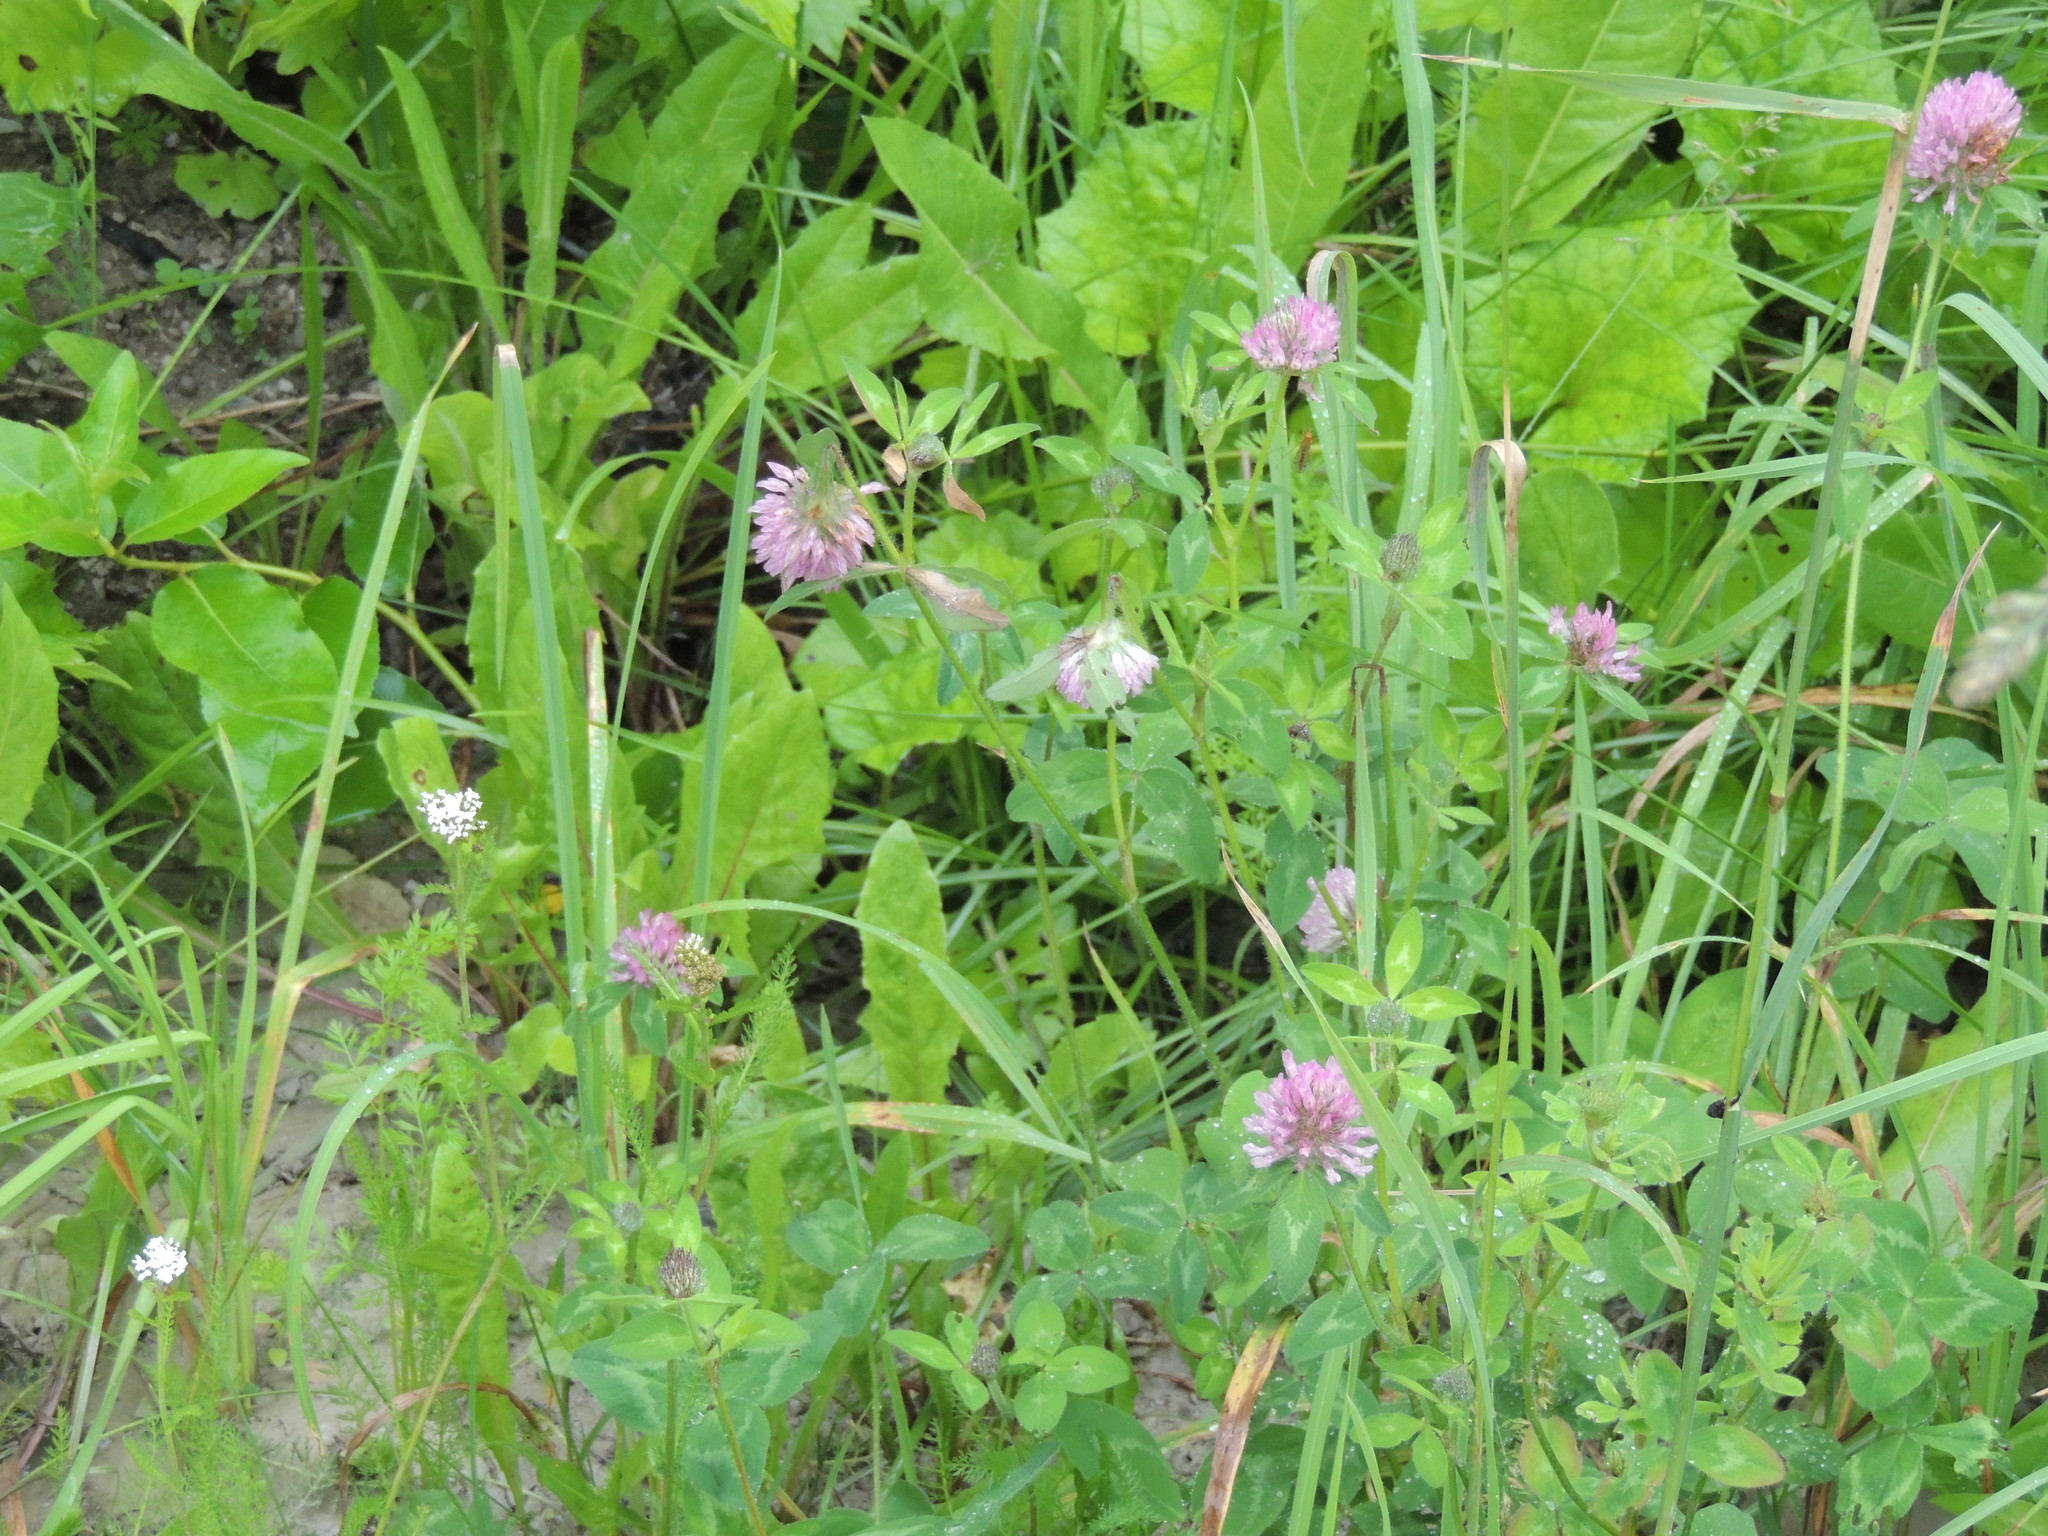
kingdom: Plantae
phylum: Tracheophyta
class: Magnoliopsida
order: Fabales
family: Fabaceae
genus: Trifolium
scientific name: Trifolium pratense
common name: Red clover
